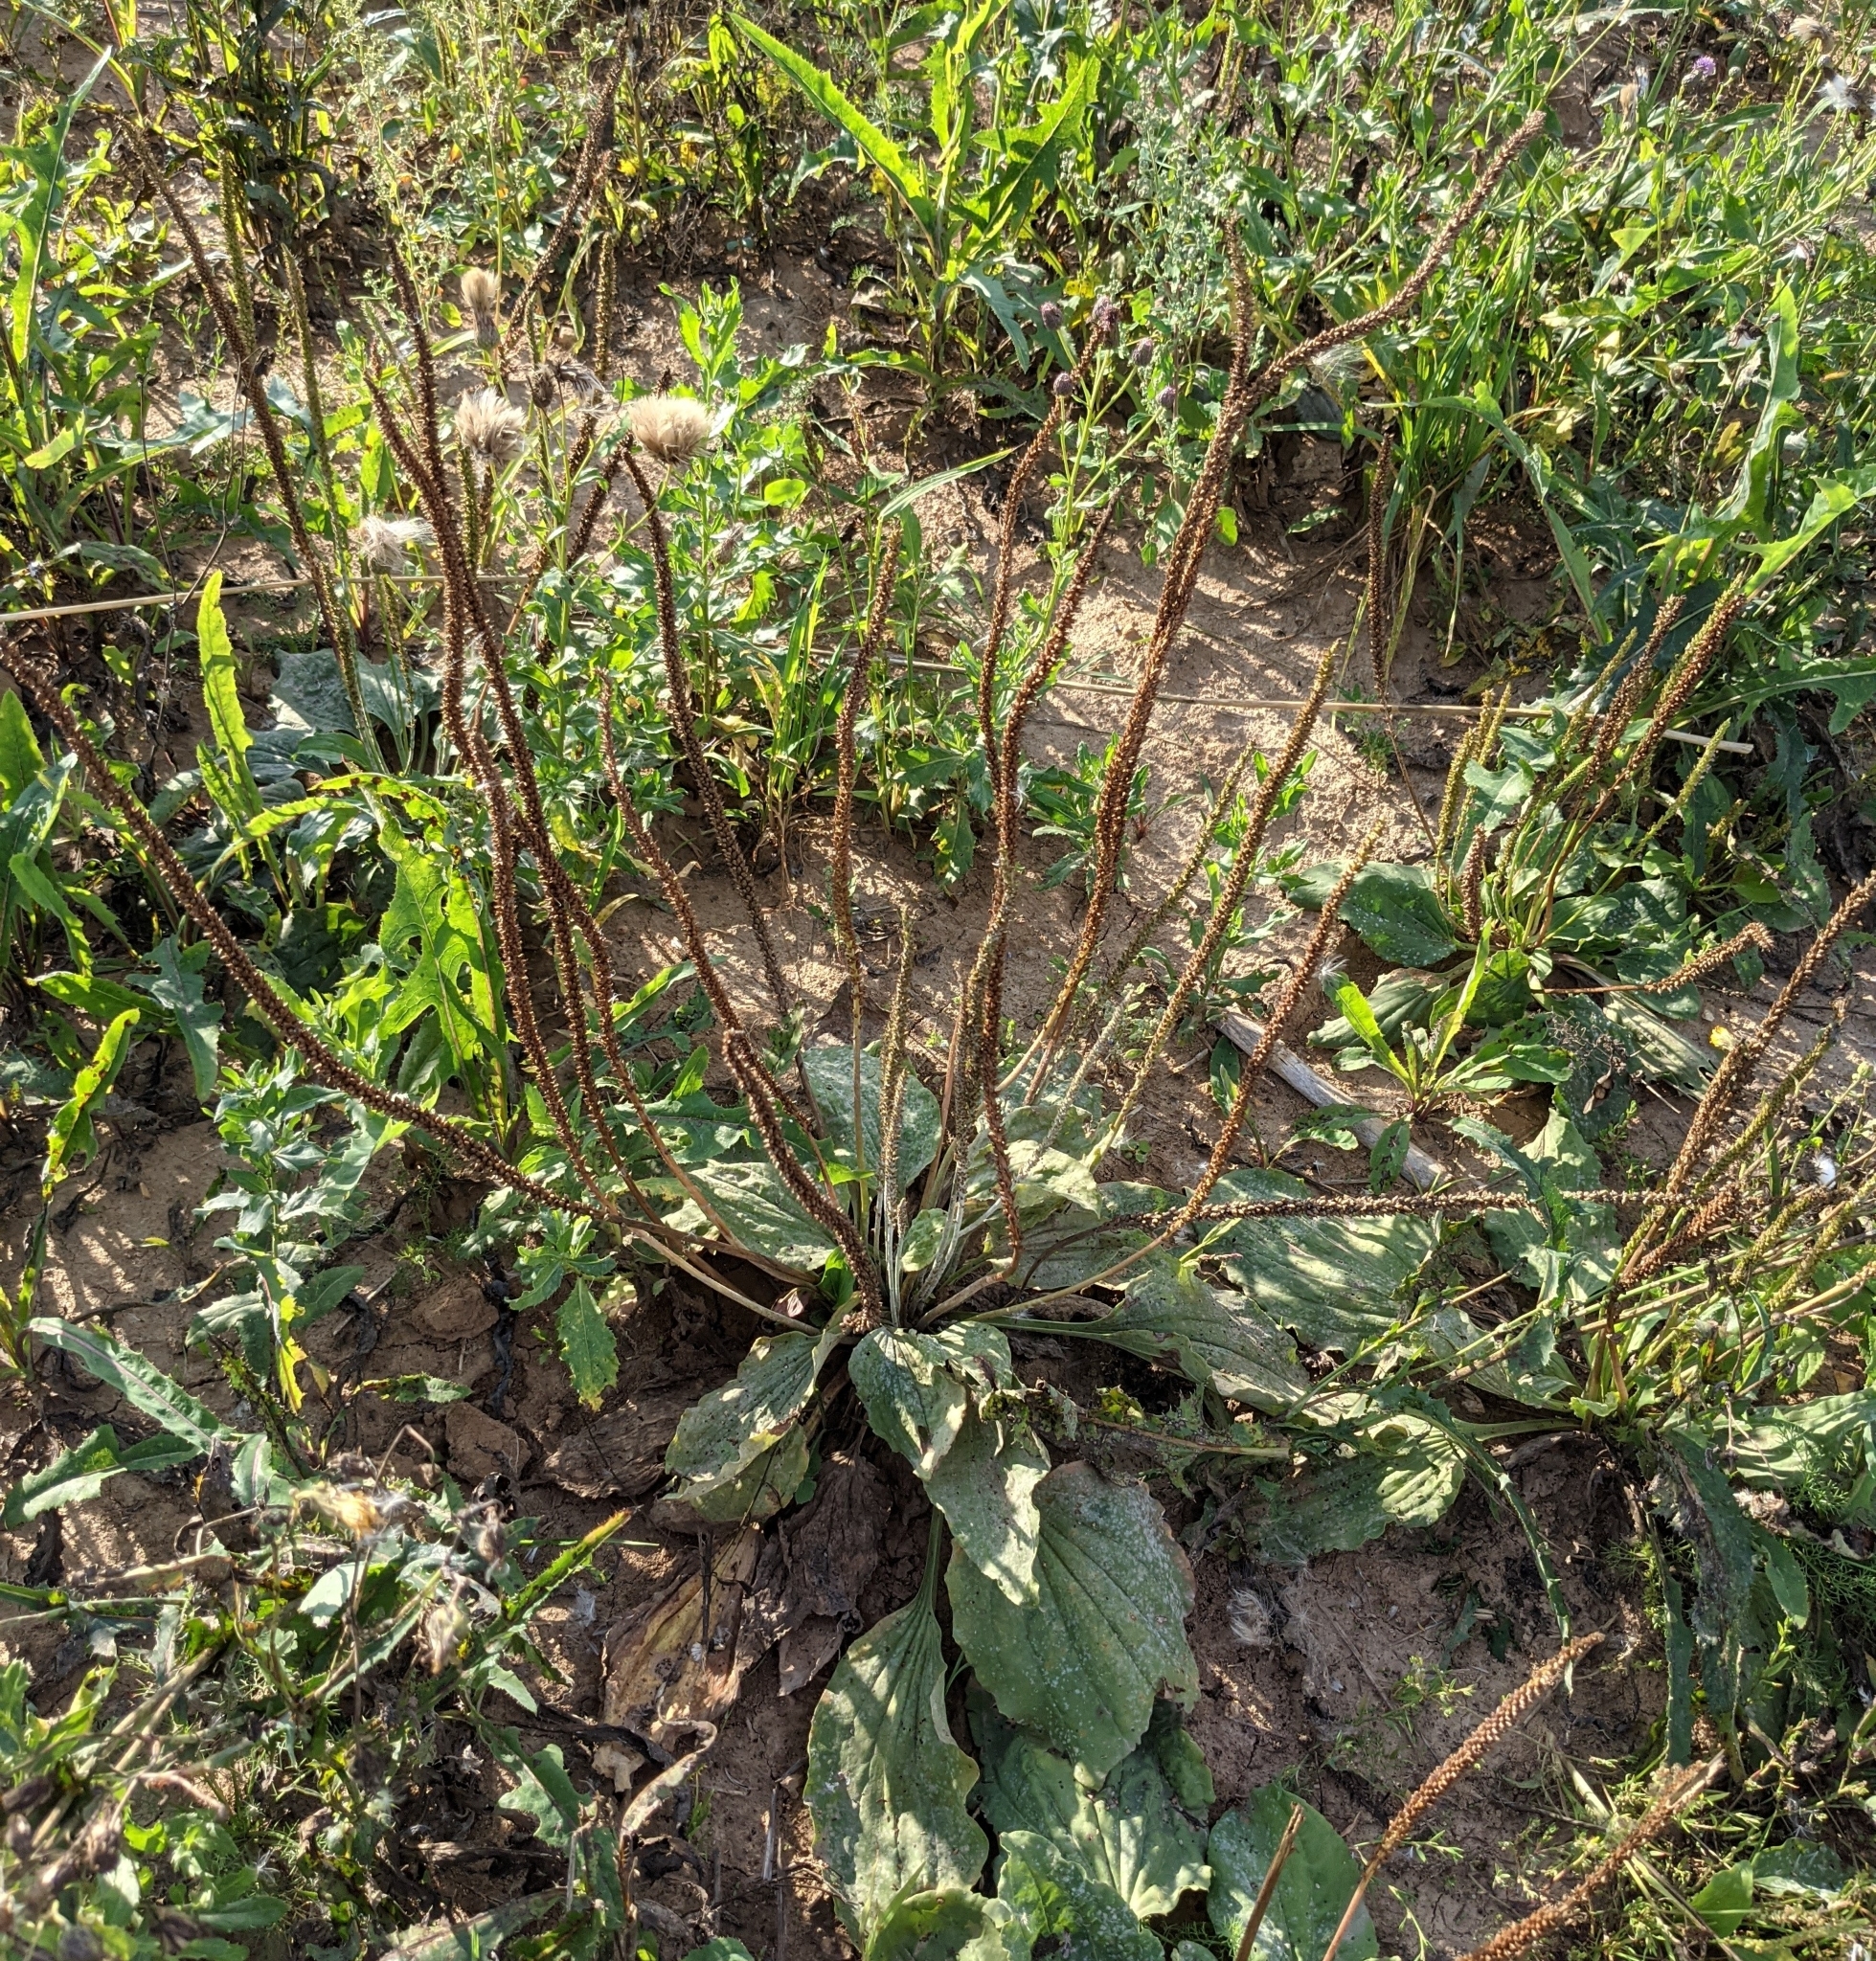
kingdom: Plantae
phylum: Tracheophyta
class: Magnoliopsida
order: Lamiales
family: Plantaginaceae
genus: Plantago
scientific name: Plantago major
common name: Common plantain
